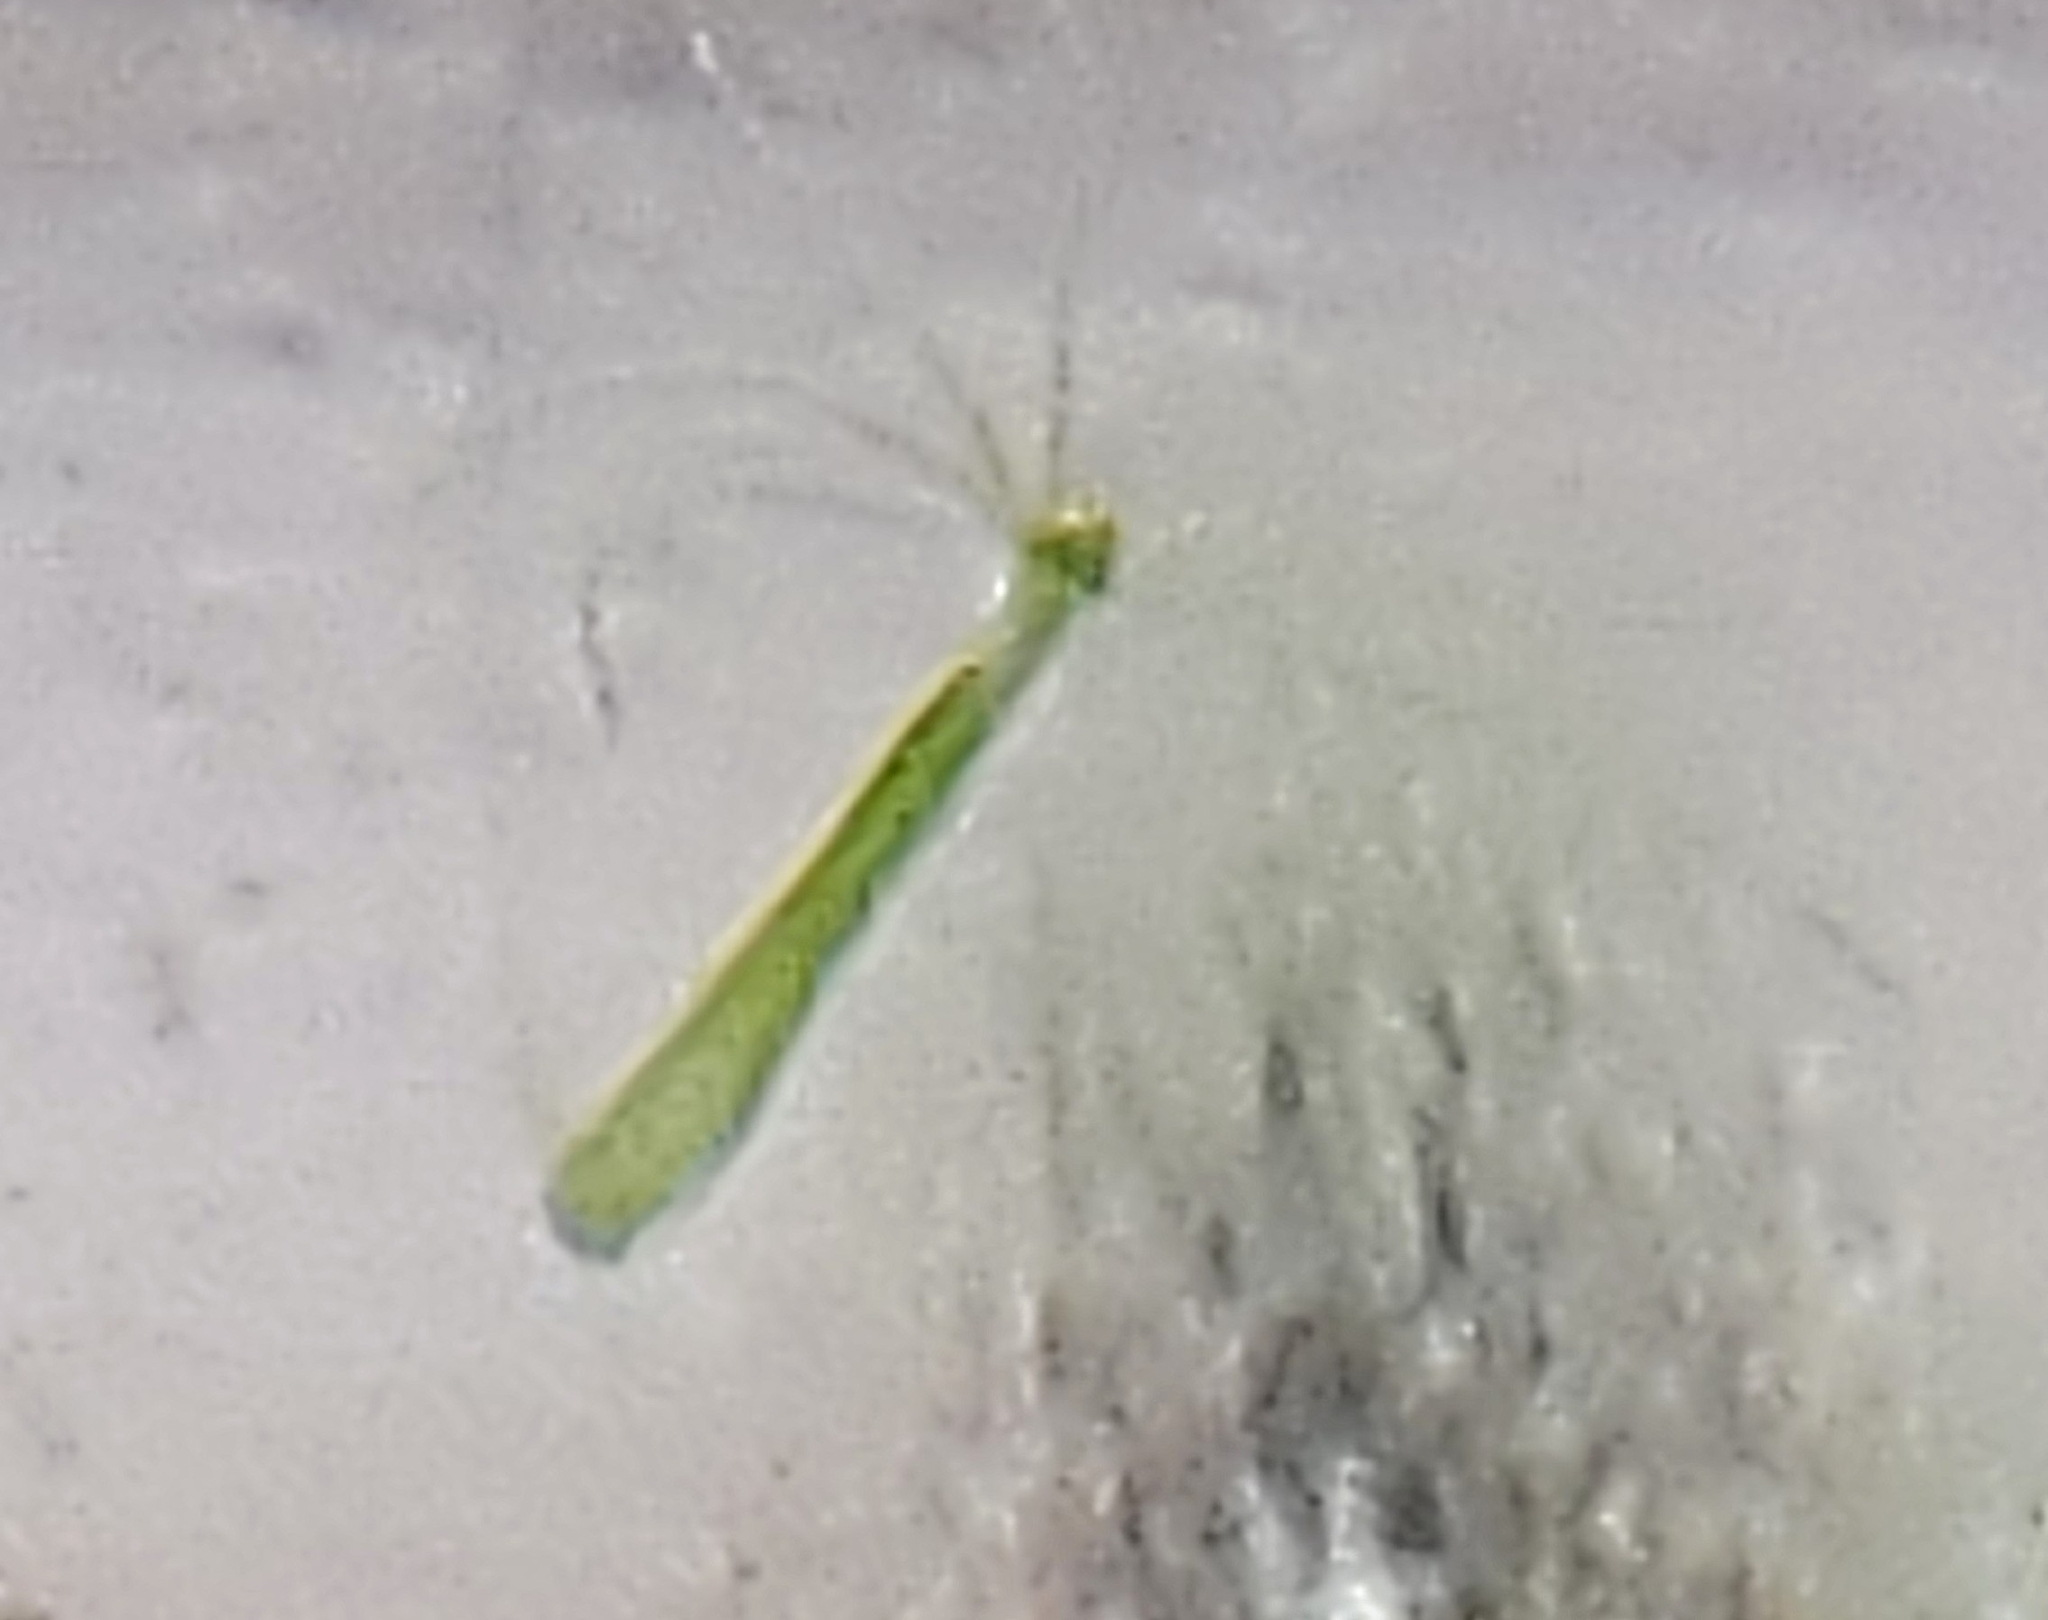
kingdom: Animalia
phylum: Cnidaria
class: Hydrozoa
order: Anthoathecata
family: Hydridae
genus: Hydra
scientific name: Hydra viridissima
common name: Green hydra
